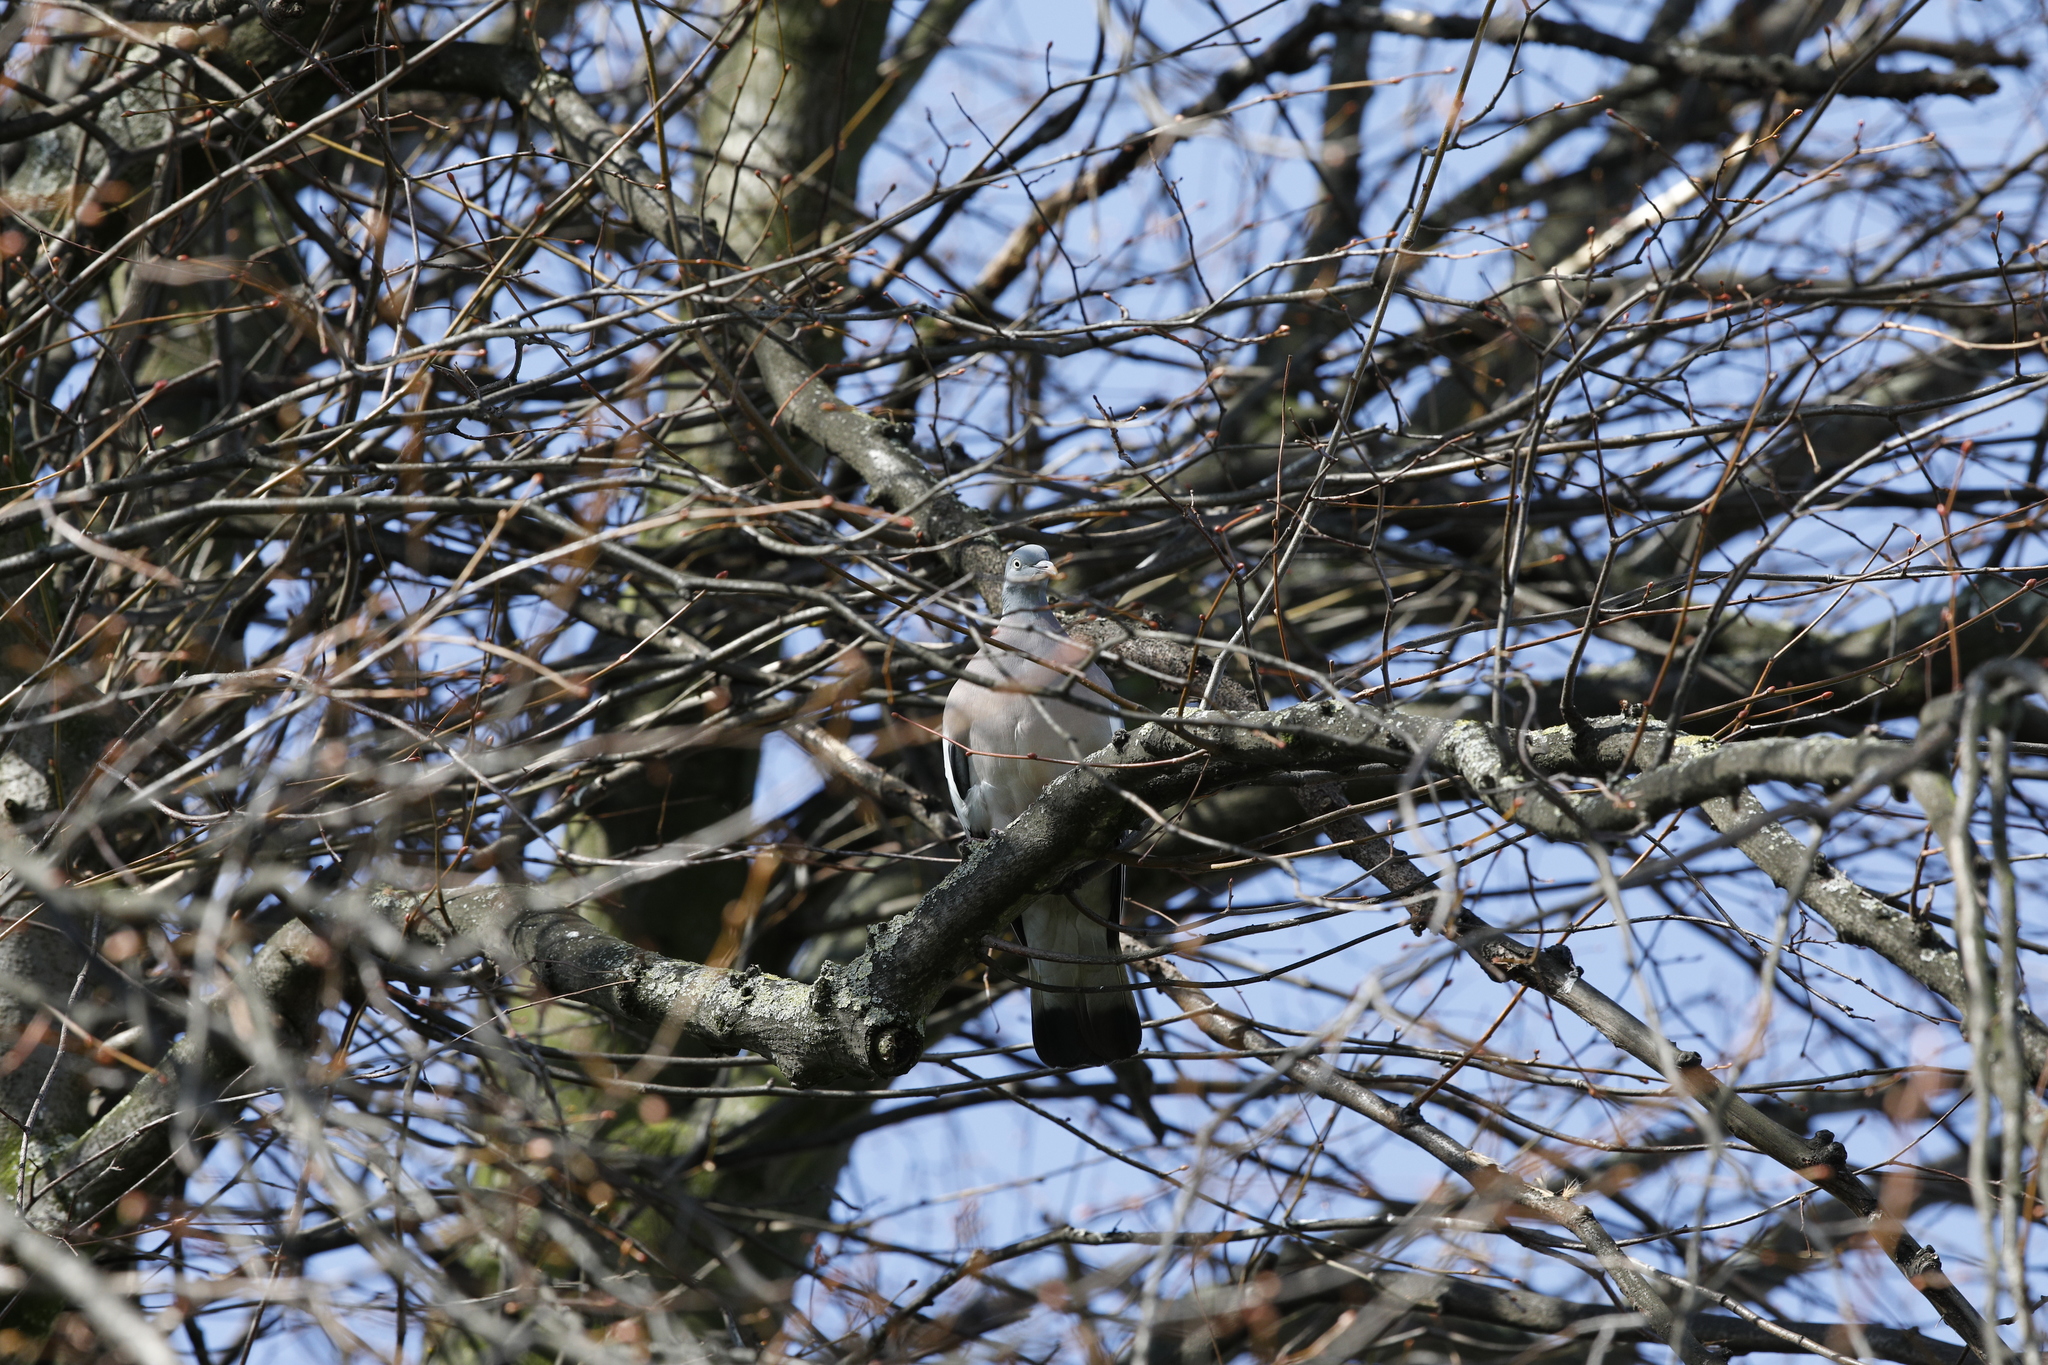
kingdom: Animalia
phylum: Chordata
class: Aves
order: Columbiformes
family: Columbidae
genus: Columba
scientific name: Columba palumbus
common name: Common wood pigeon
